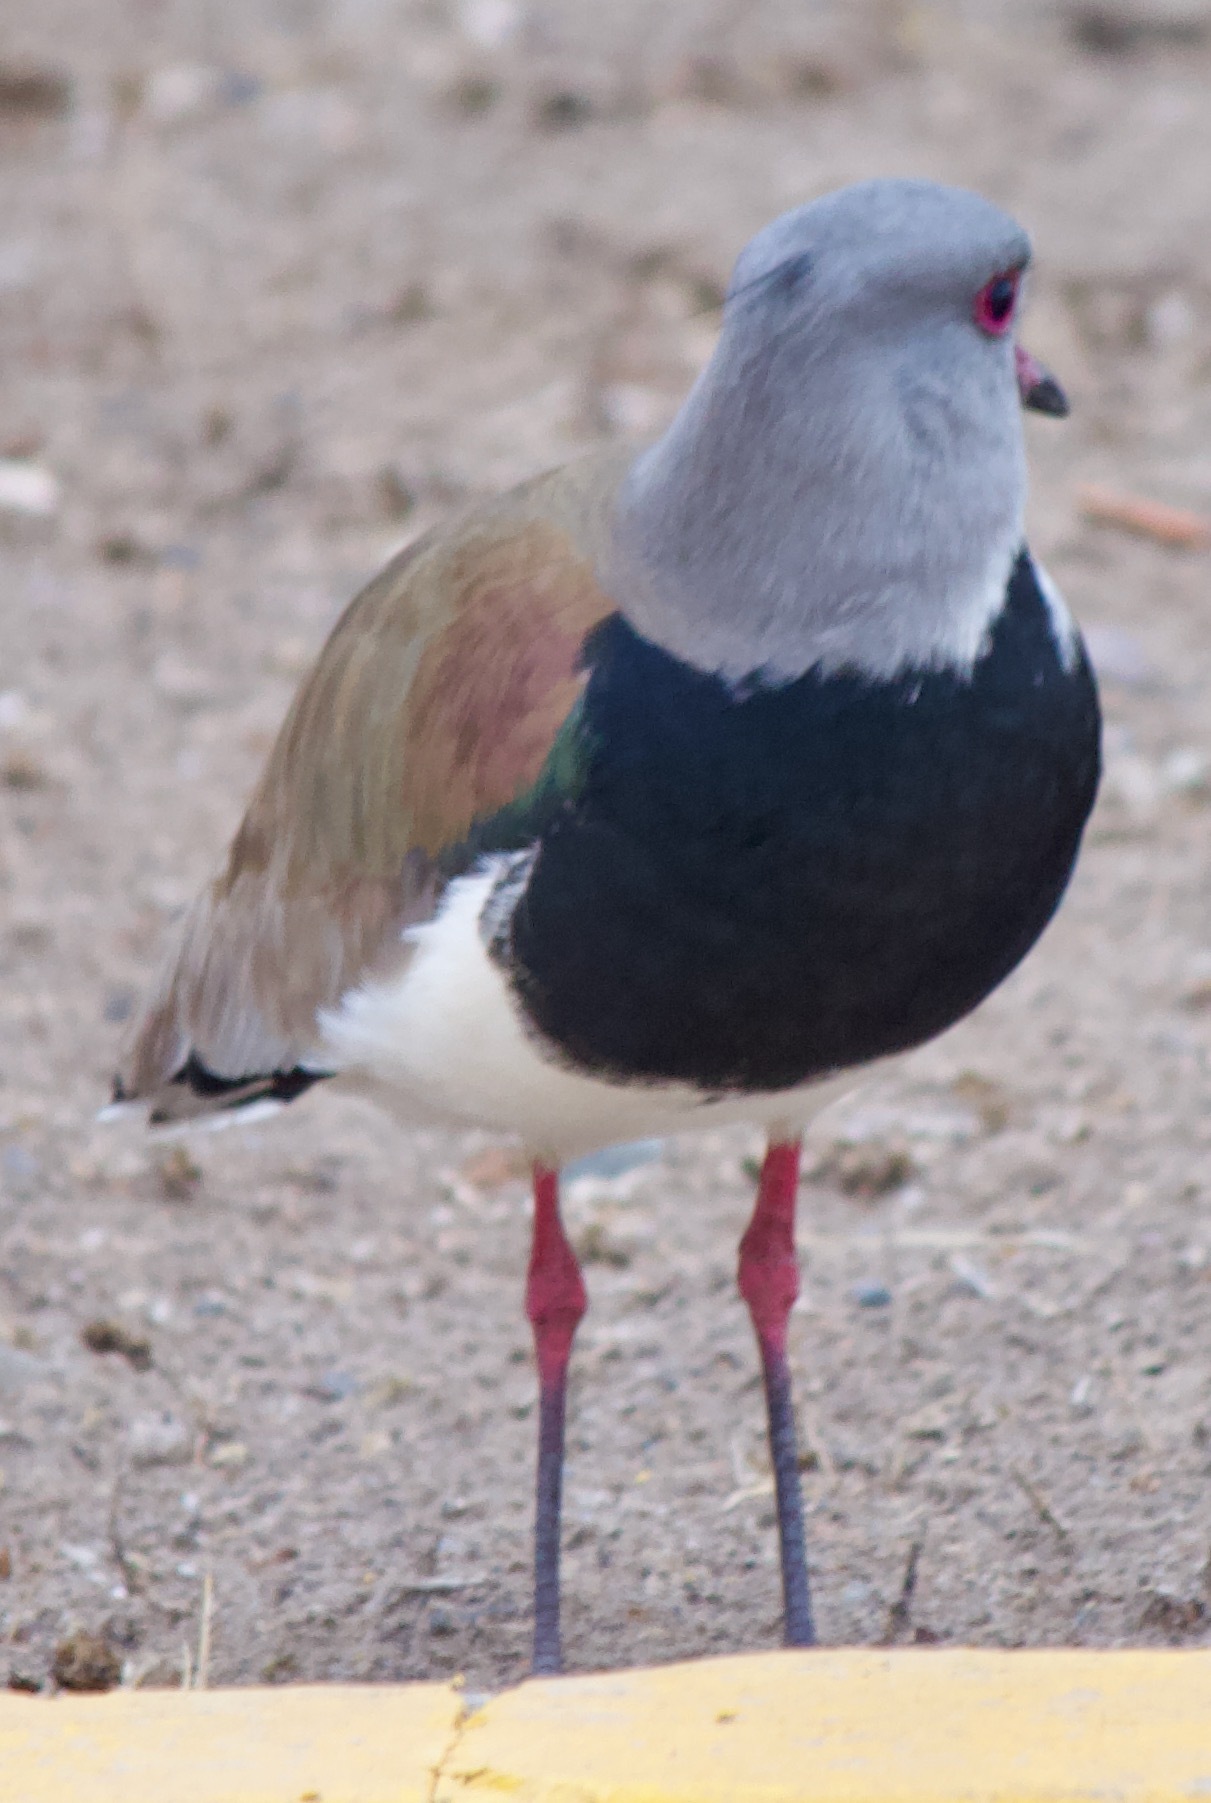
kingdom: Animalia
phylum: Chordata
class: Aves
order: Charadriiformes
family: Charadriidae
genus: Vanellus
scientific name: Vanellus chilensis
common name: Southern lapwing
